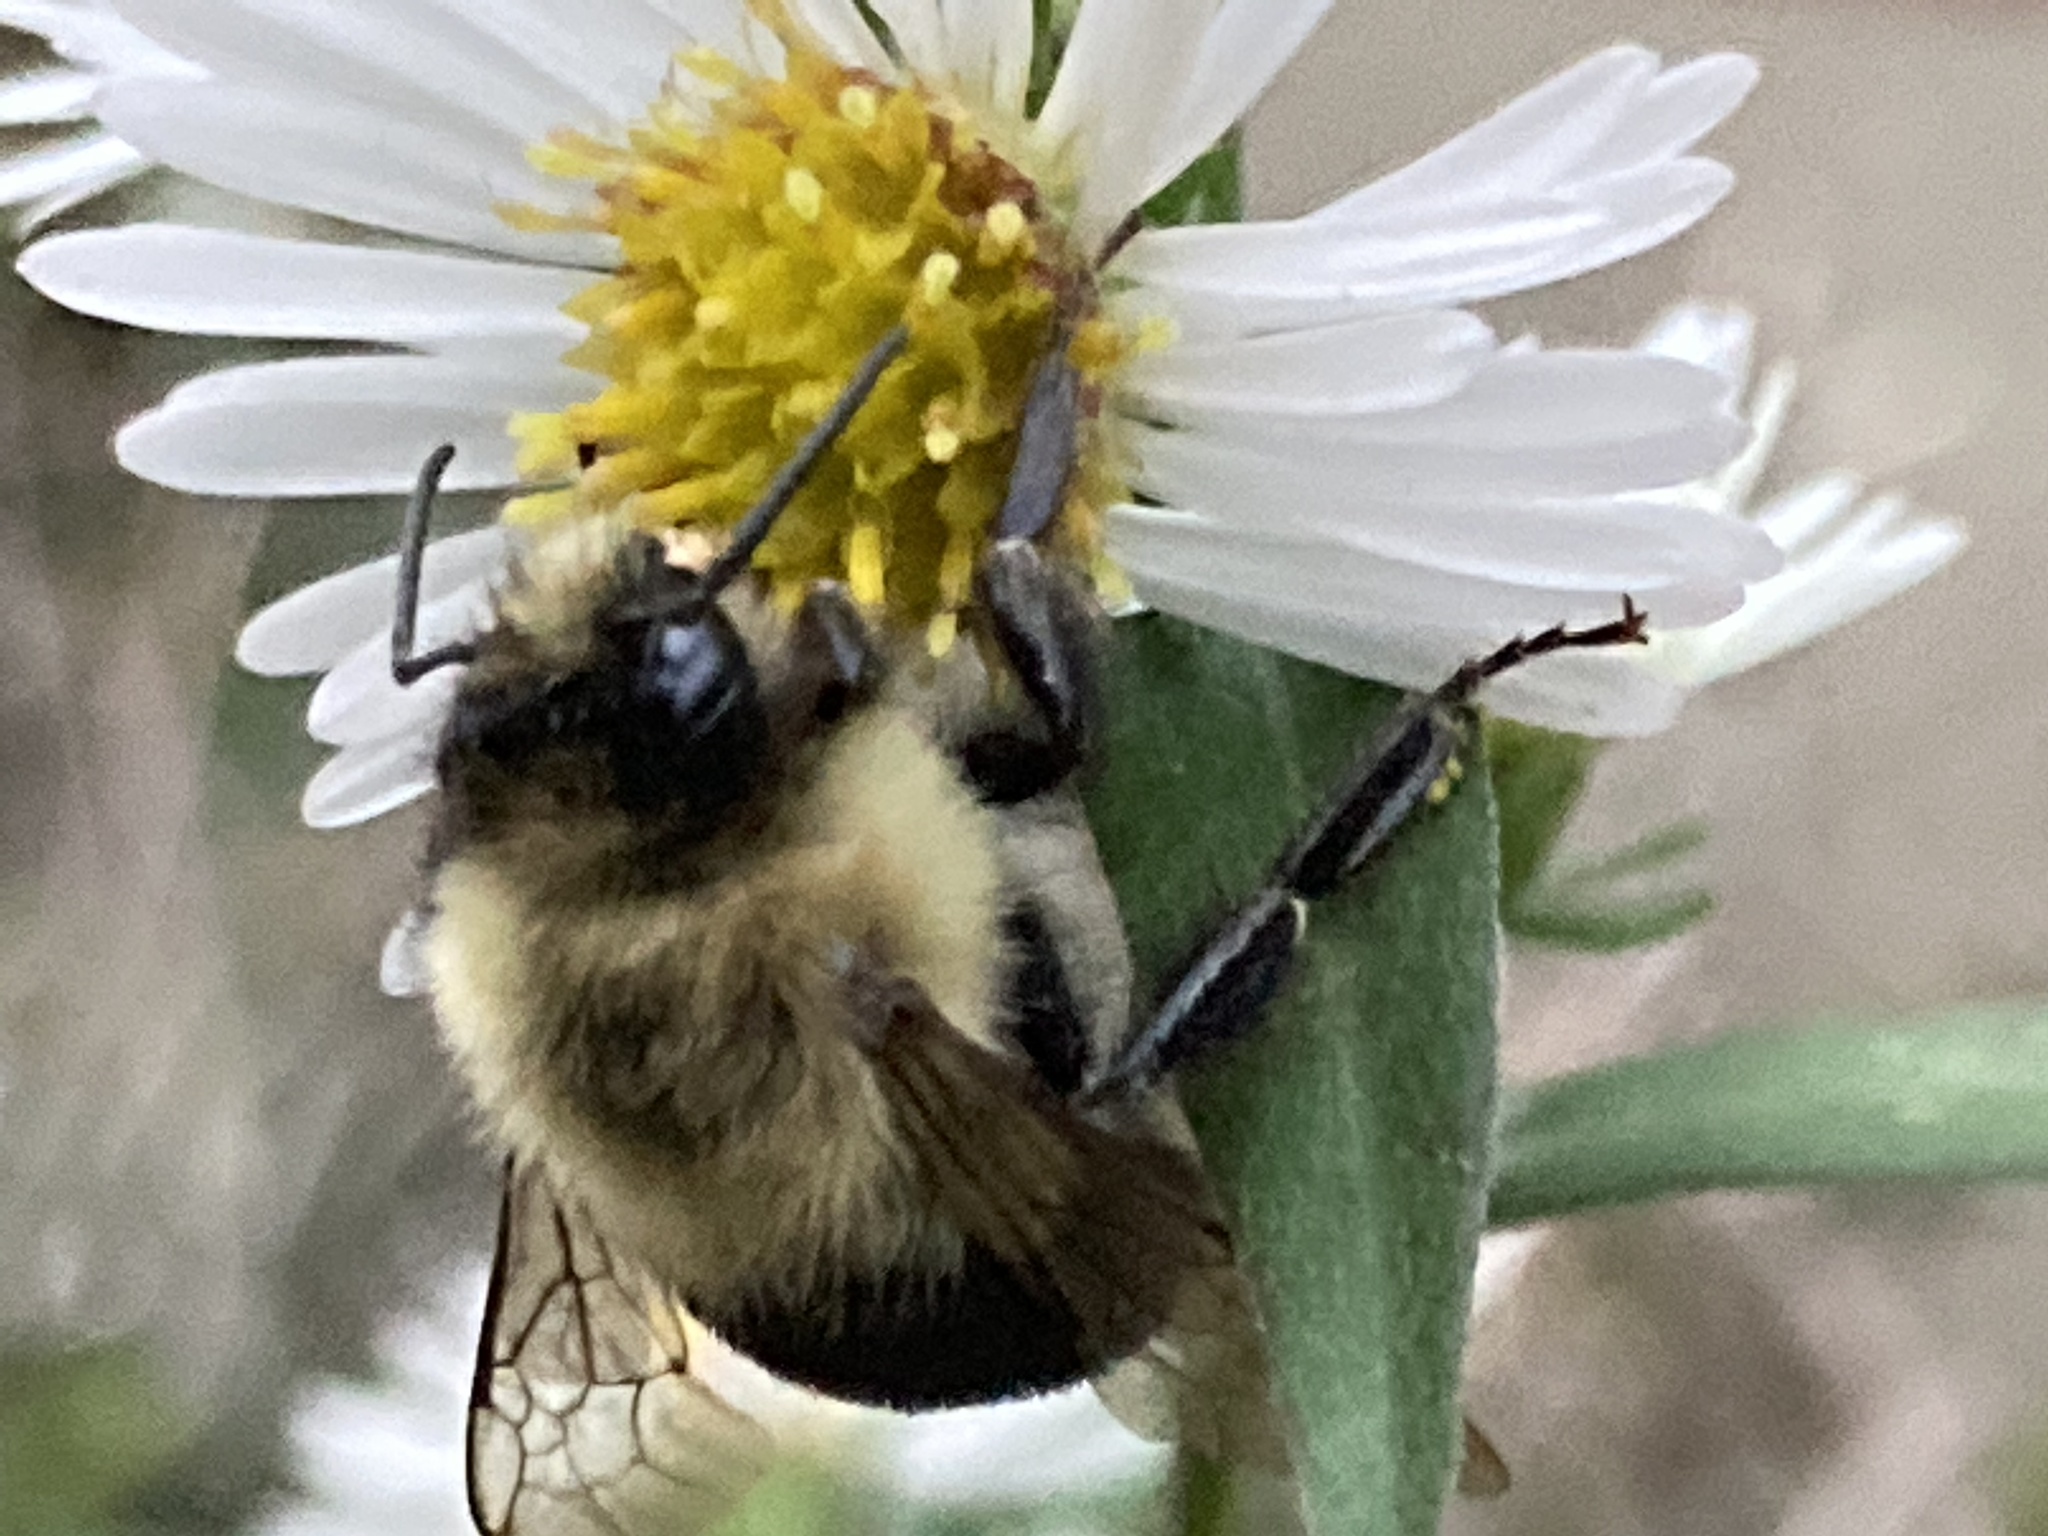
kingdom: Animalia
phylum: Arthropoda
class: Insecta
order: Hymenoptera
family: Apidae
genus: Bombus
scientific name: Bombus impatiens
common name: Common eastern bumble bee
